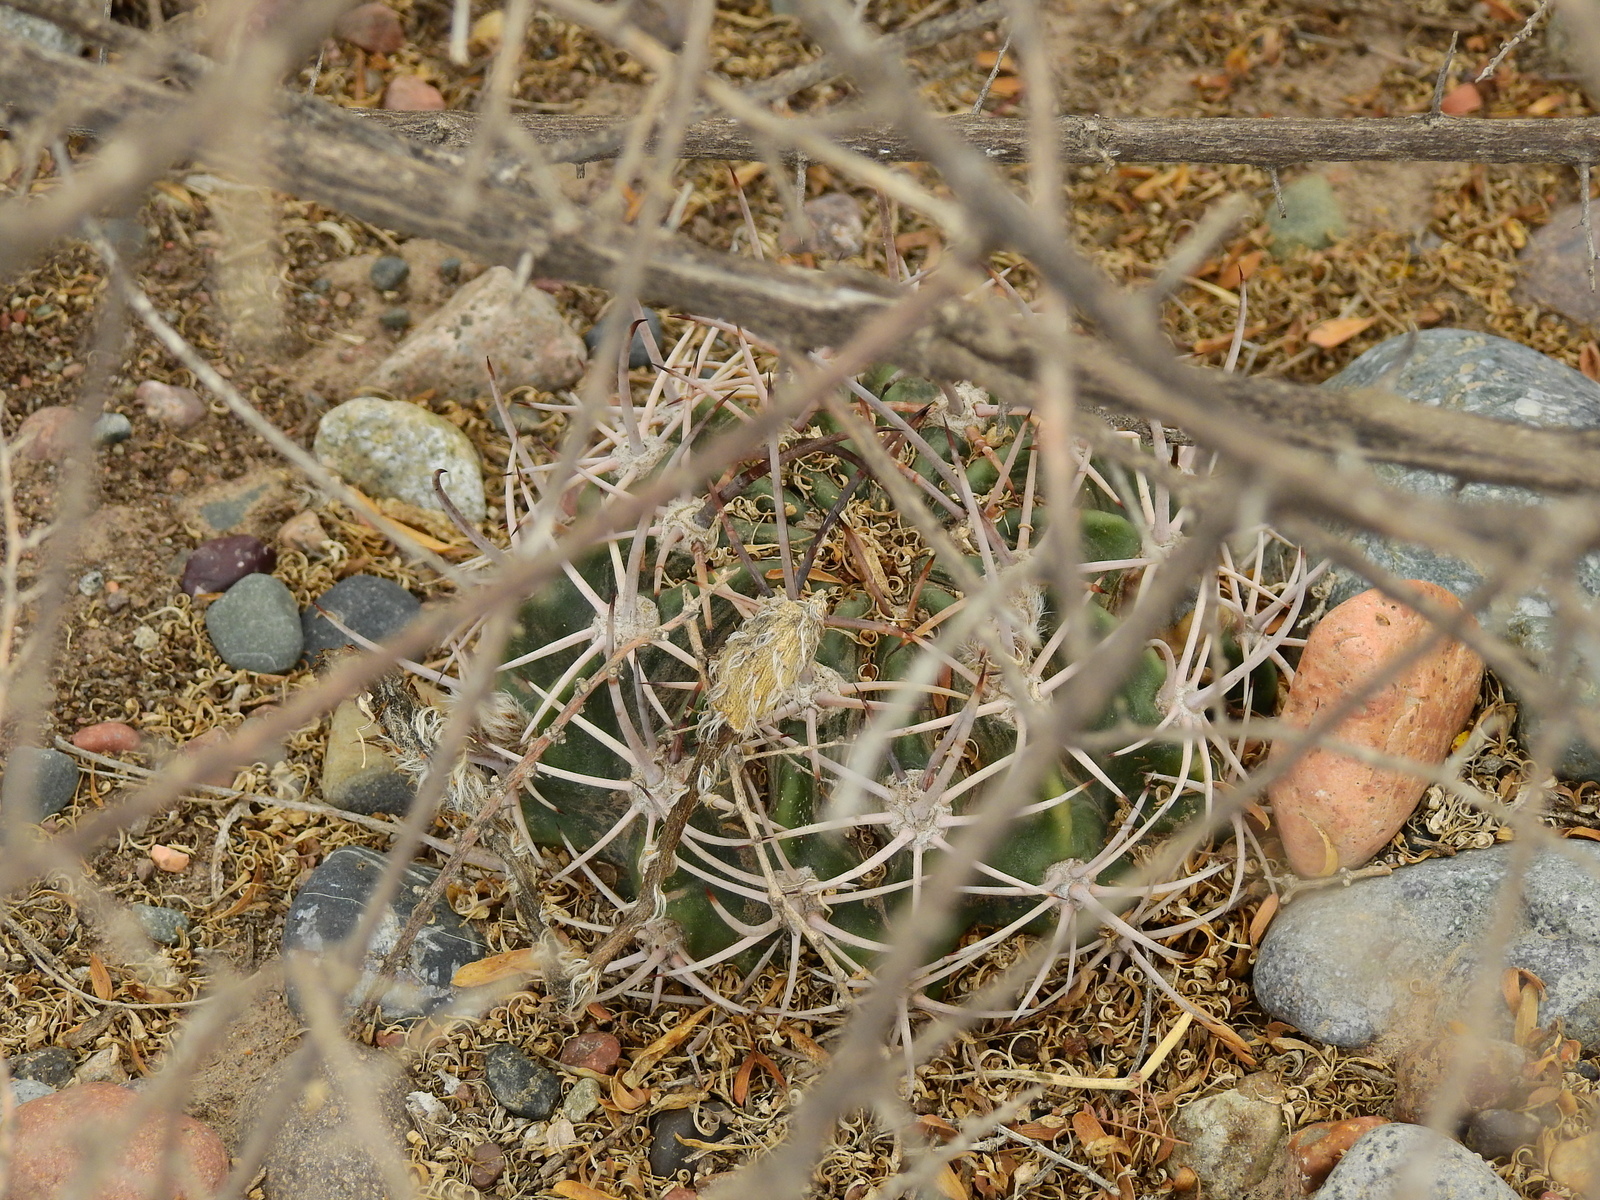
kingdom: Plantae
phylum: Tracheophyta
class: Magnoliopsida
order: Caryophyllales
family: Cactaceae
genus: Acanthocalycium
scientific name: Acanthocalycium leucanthum
